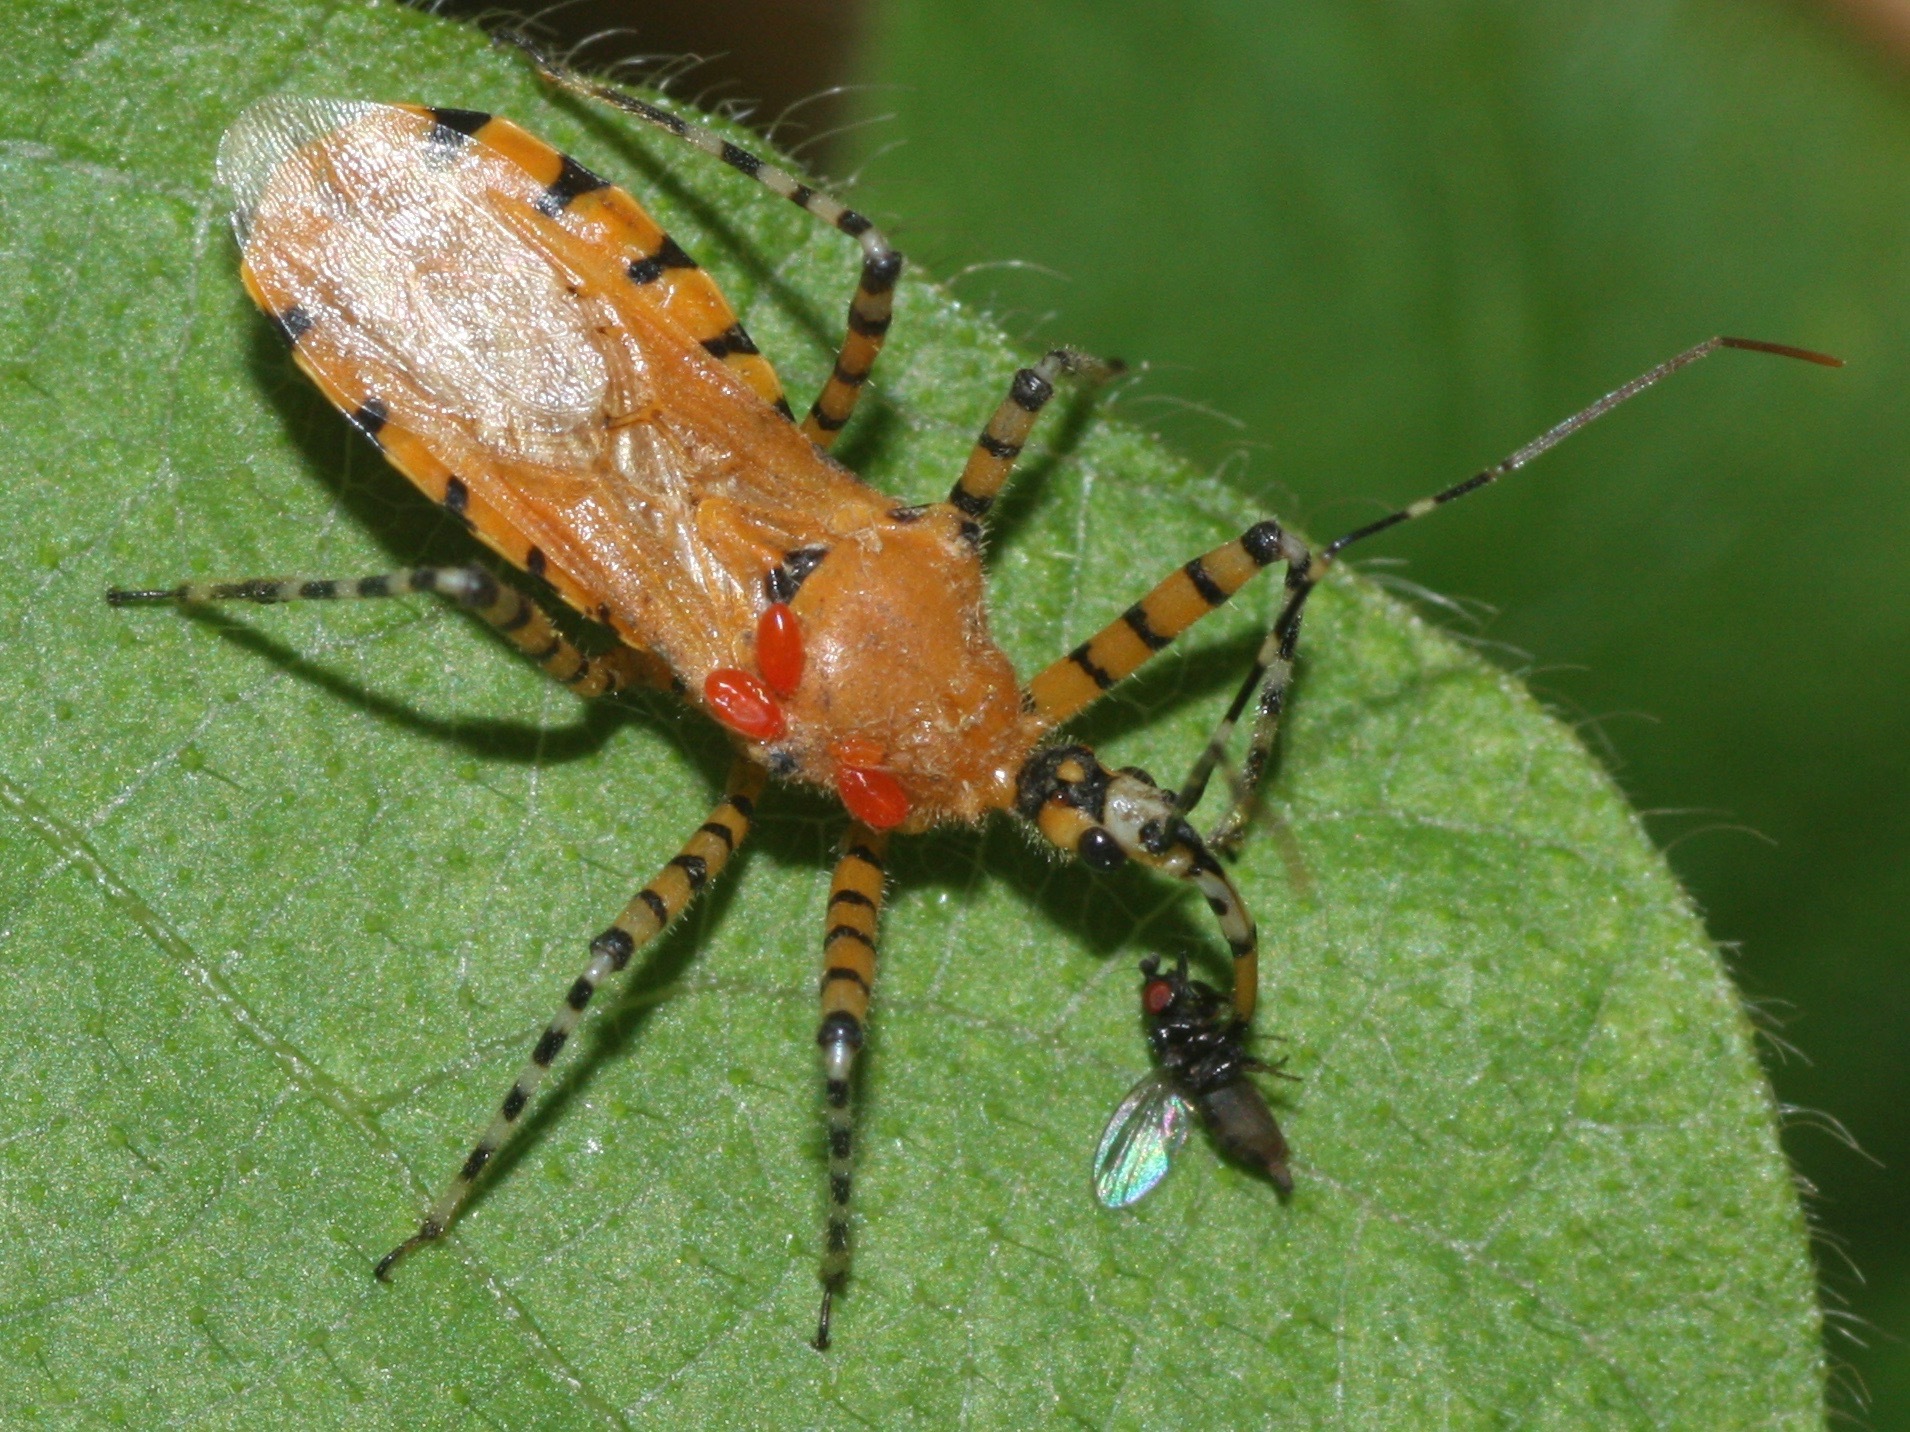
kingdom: Animalia
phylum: Arthropoda
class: Insecta
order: Hemiptera
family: Reduviidae
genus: Pselliopus
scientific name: Pselliopus barberi
